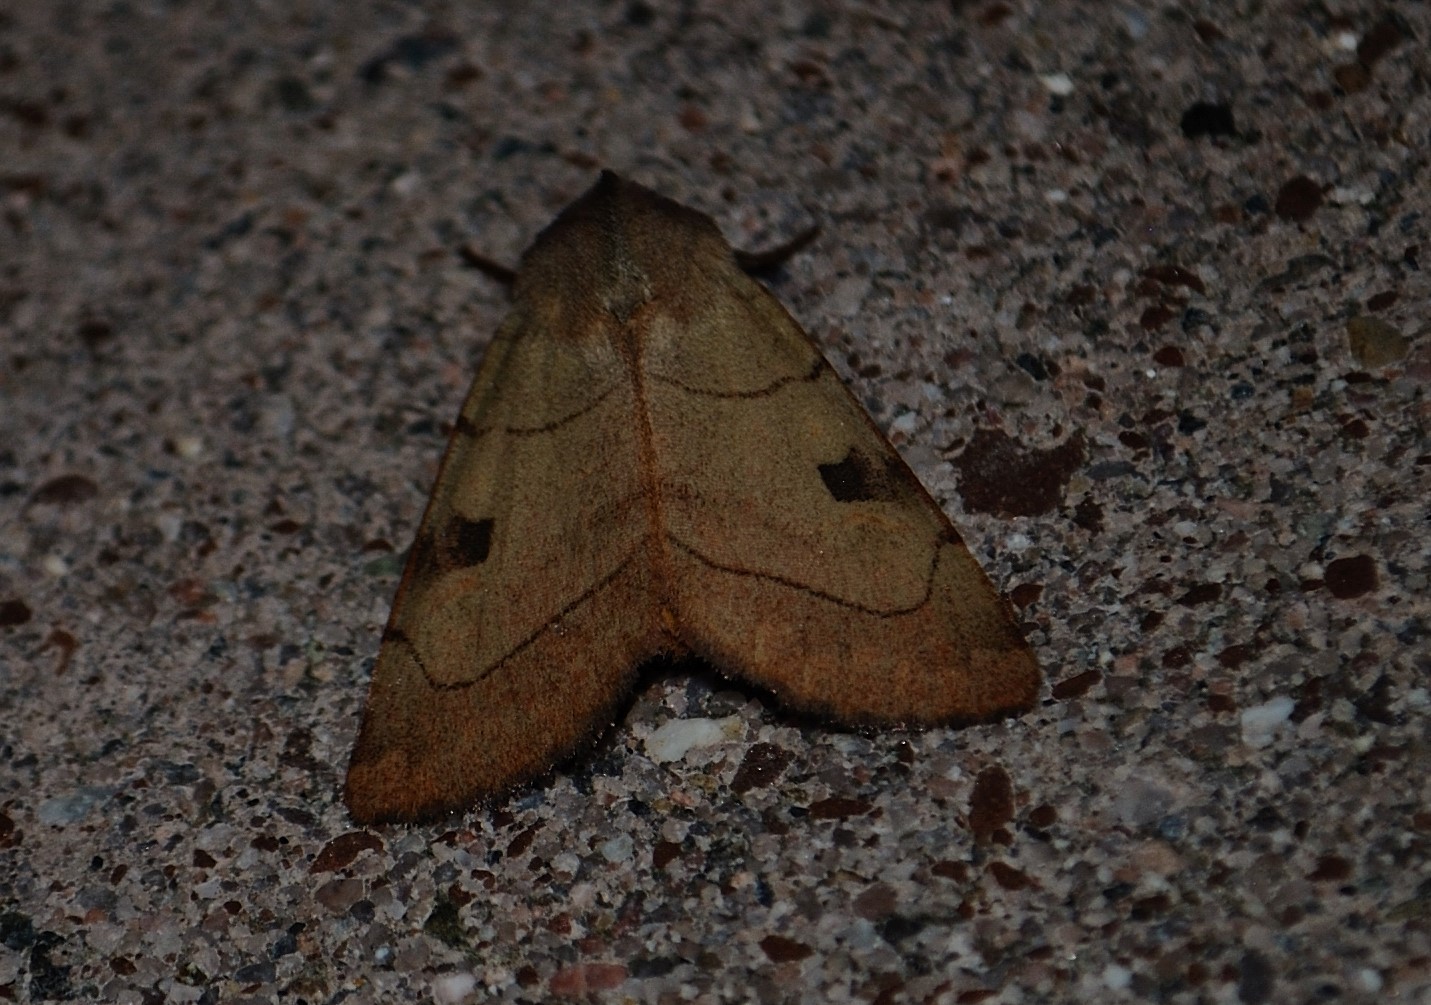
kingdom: Animalia
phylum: Arthropoda
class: Insecta
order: Lepidoptera
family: Noctuidae
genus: Choephora
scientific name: Choephora fungorum
